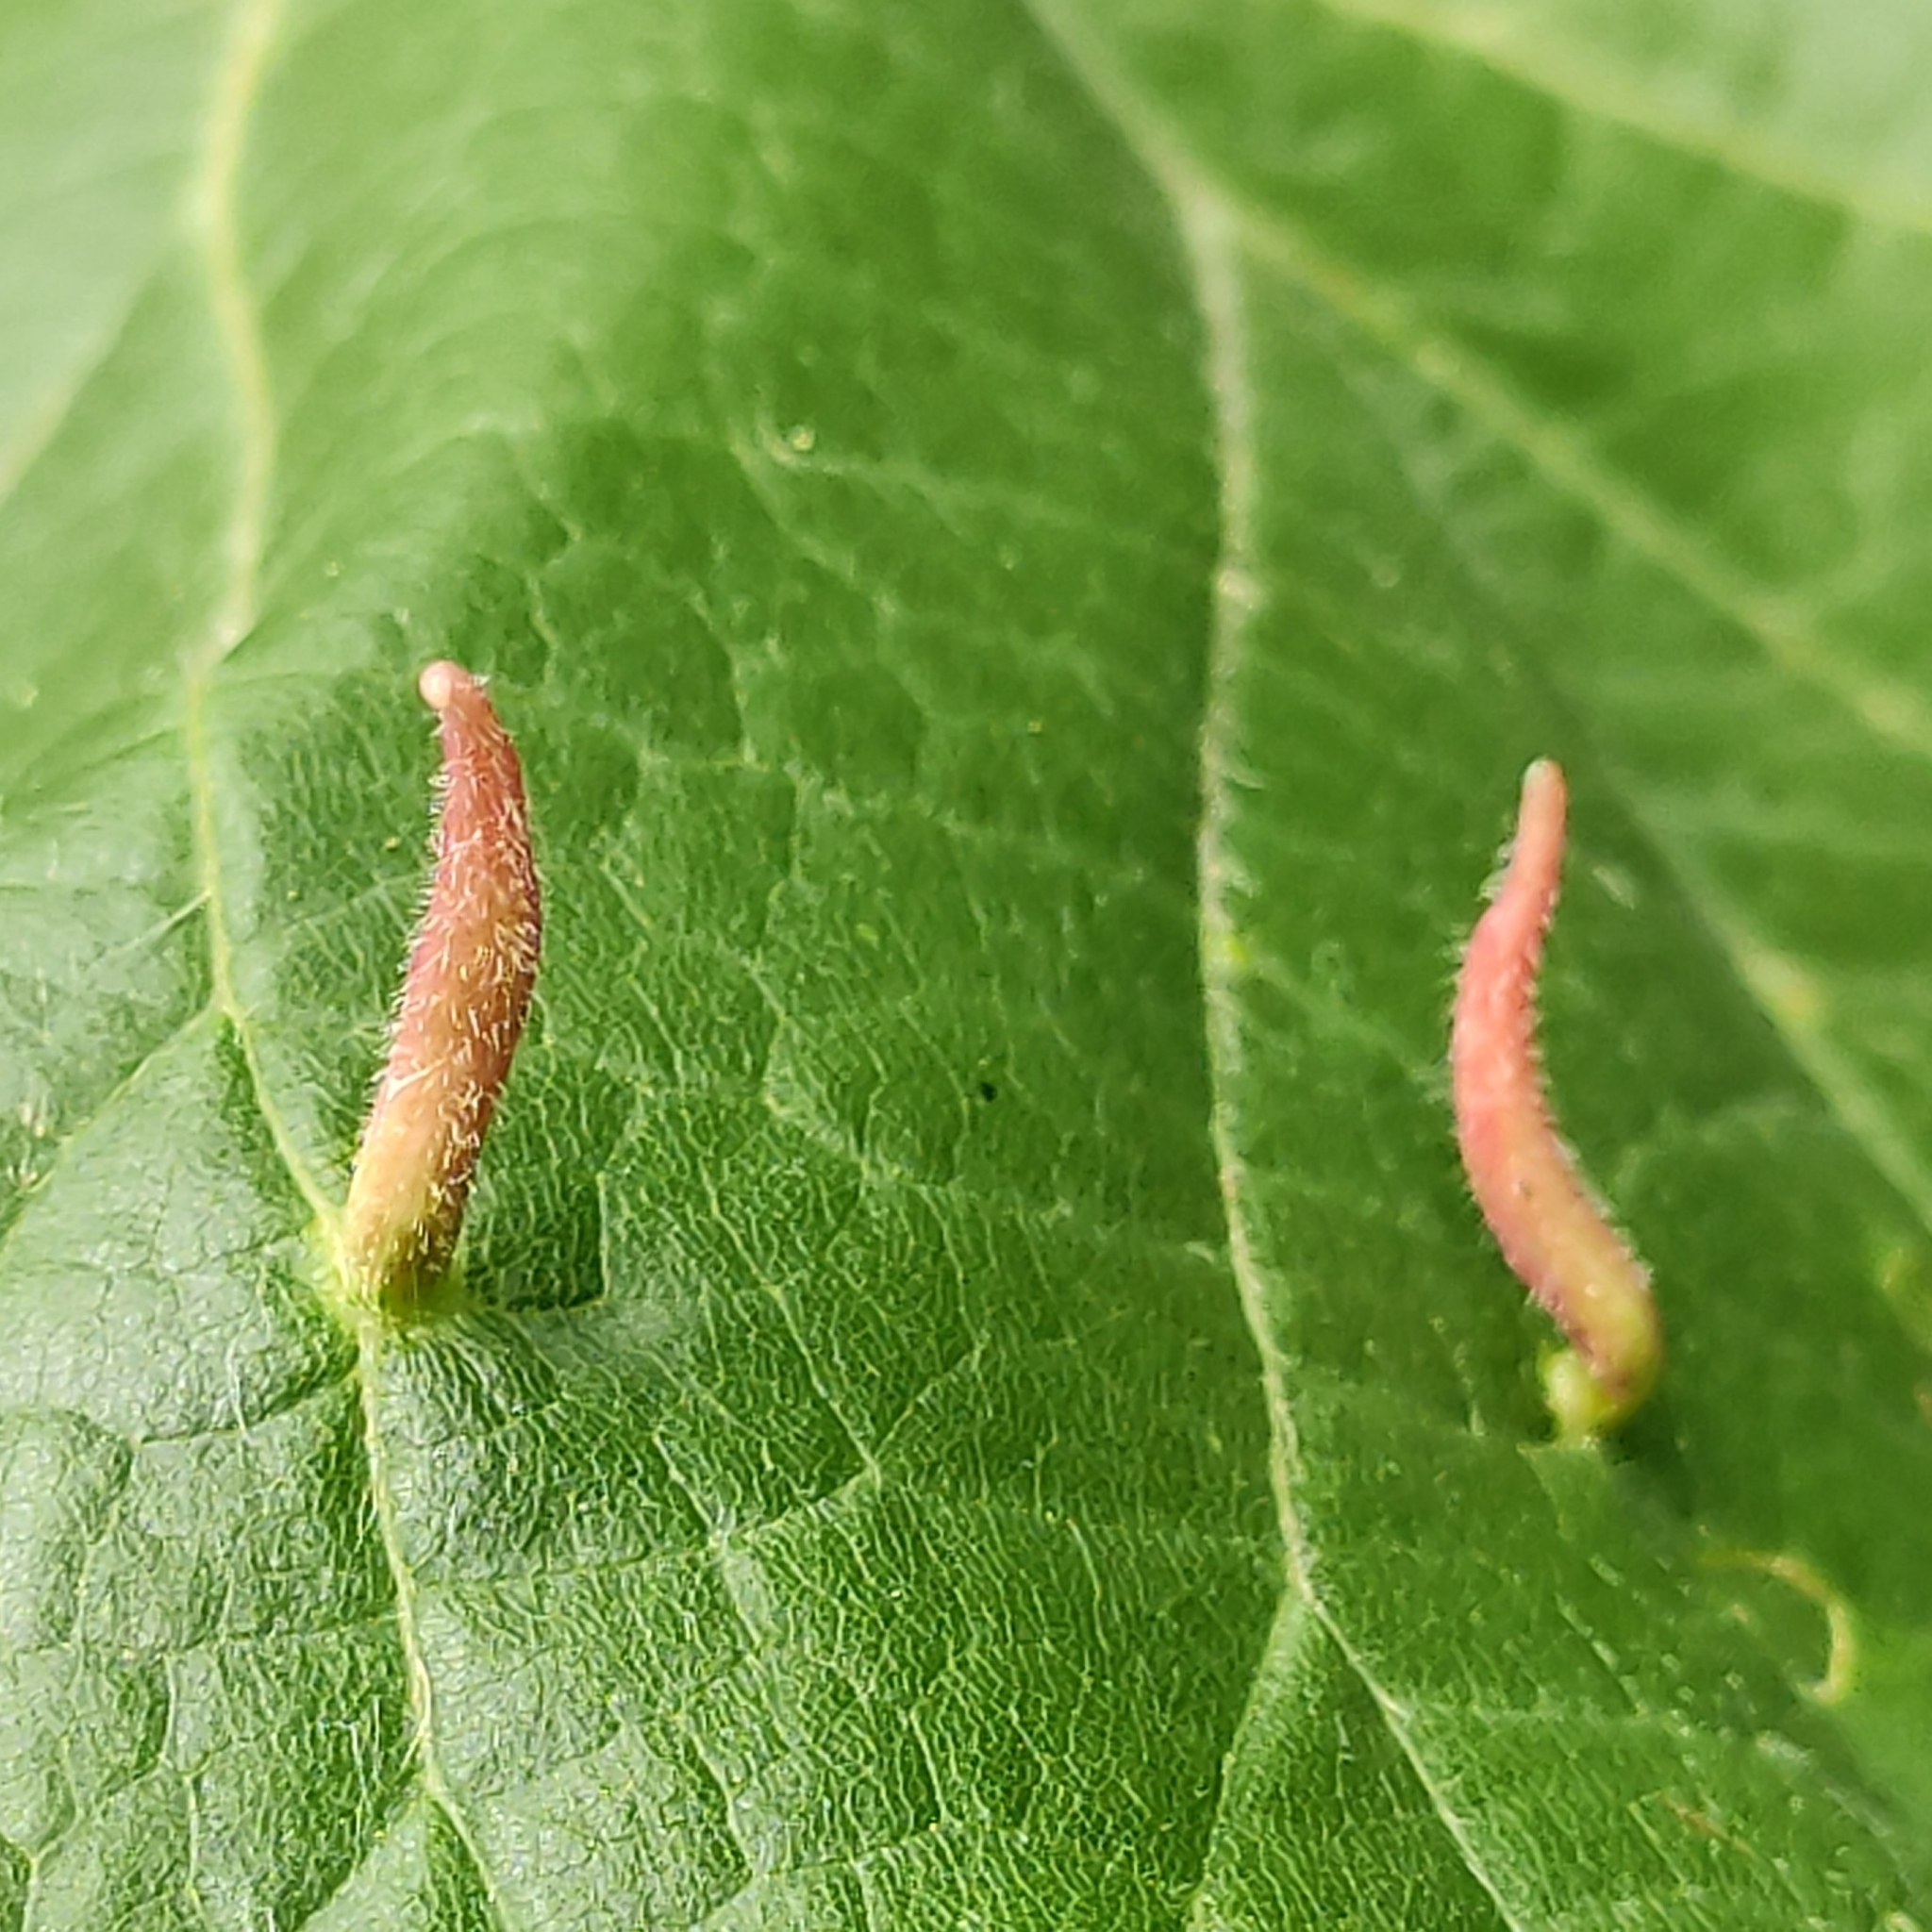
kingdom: Animalia
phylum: Arthropoda
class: Arachnida
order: Trombidiformes
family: Eriophyidae
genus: Eriophyes
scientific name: Eriophyes tiliae
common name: Red nail gall mite
